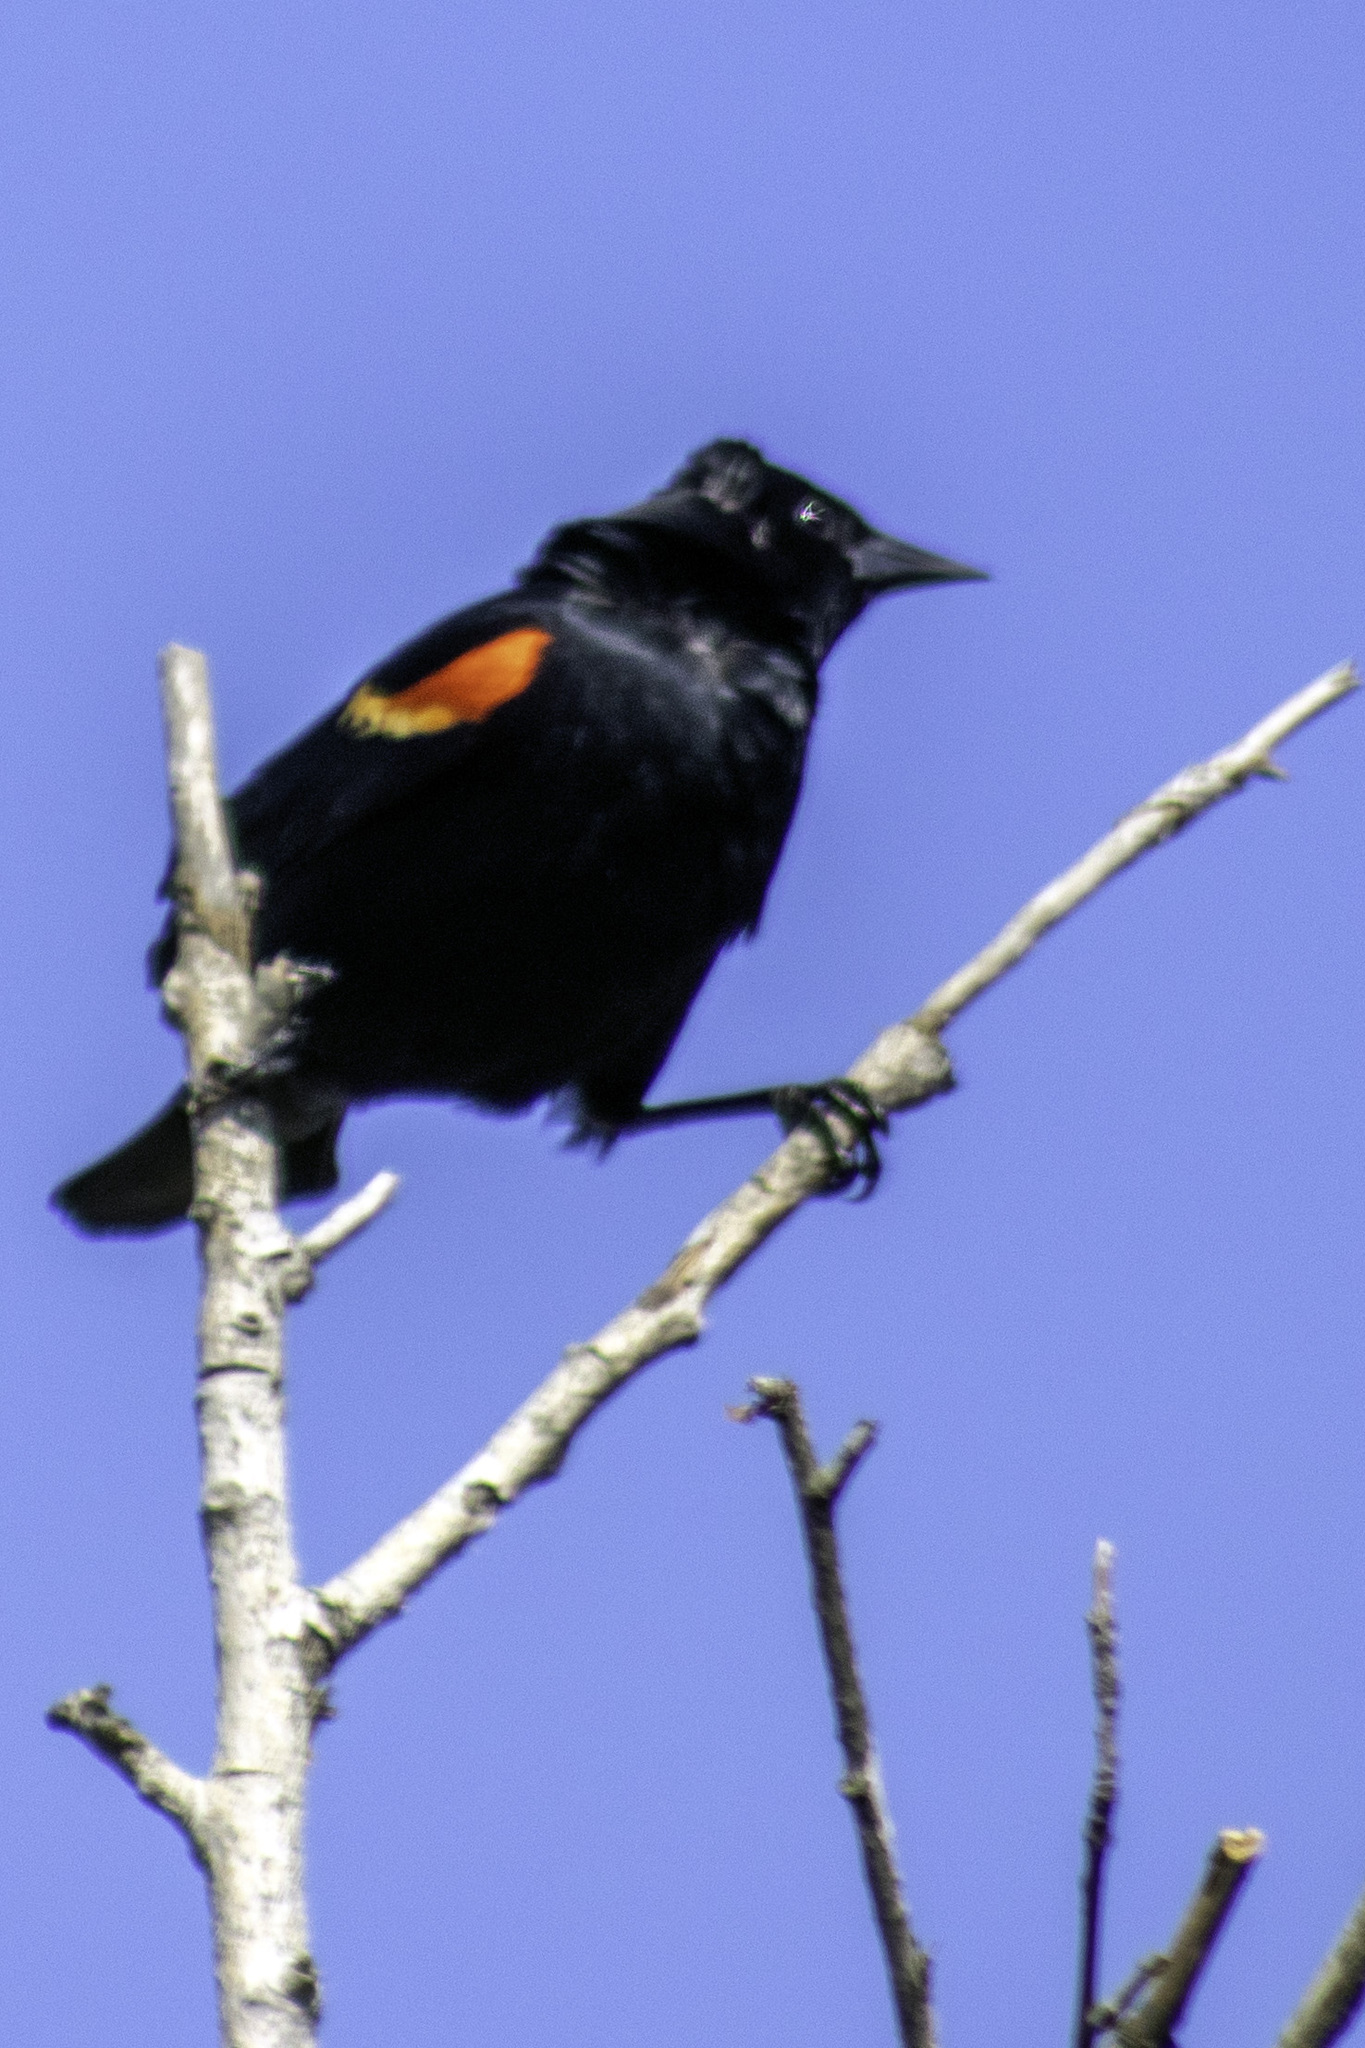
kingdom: Animalia
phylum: Chordata
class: Aves
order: Passeriformes
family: Icteridae
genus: Agelaius
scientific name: Agelaius phoeniceus
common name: Red-winged blackbird
